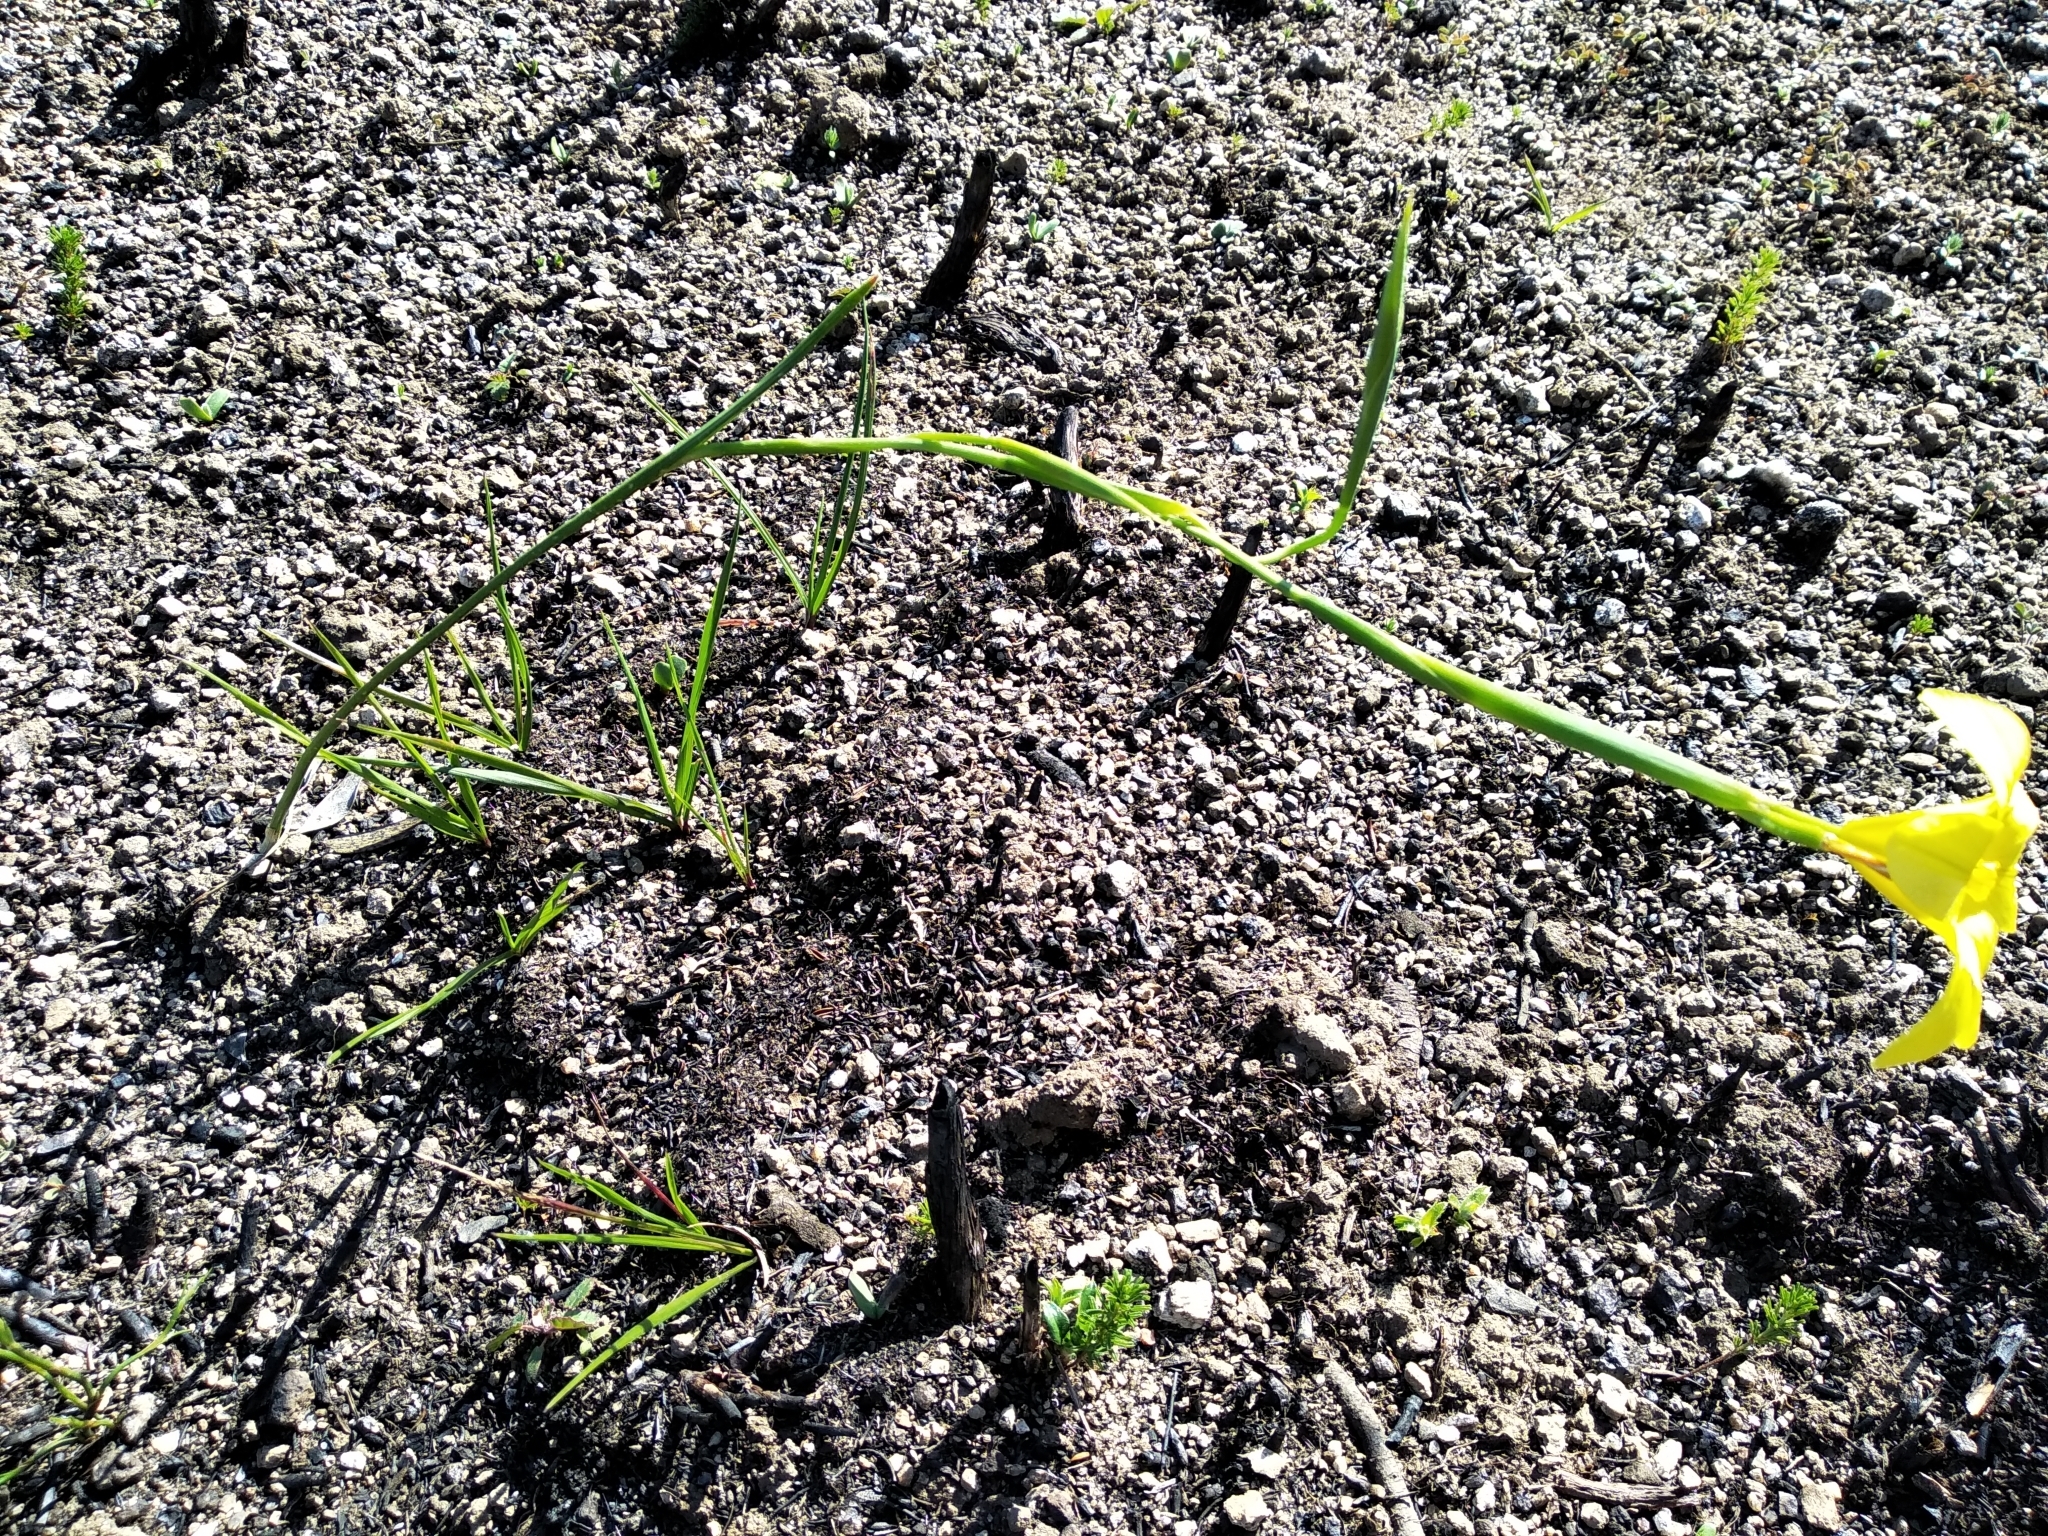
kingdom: Plantae
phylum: Tracheophyta
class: Liliopsida
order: Asparagales
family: Iridaceae
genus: Moraea
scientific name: Moraea ochroleuca
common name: Red tulp
